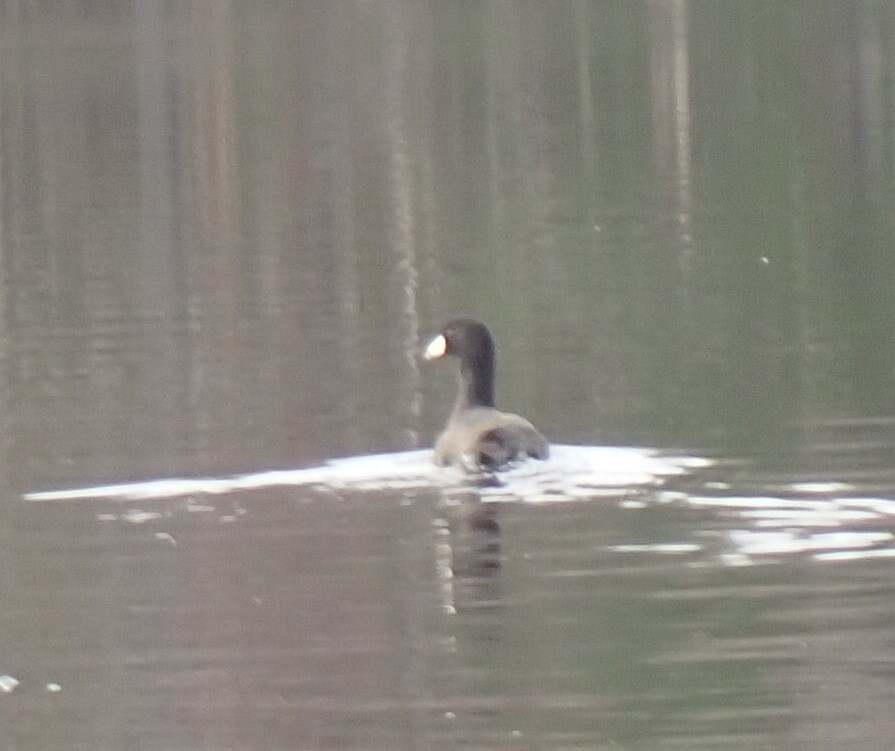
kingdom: Animalia
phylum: Chordata
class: Aves
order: Gruiformes
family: Rallidae
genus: Fulica
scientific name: Fulica americana
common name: American coot
